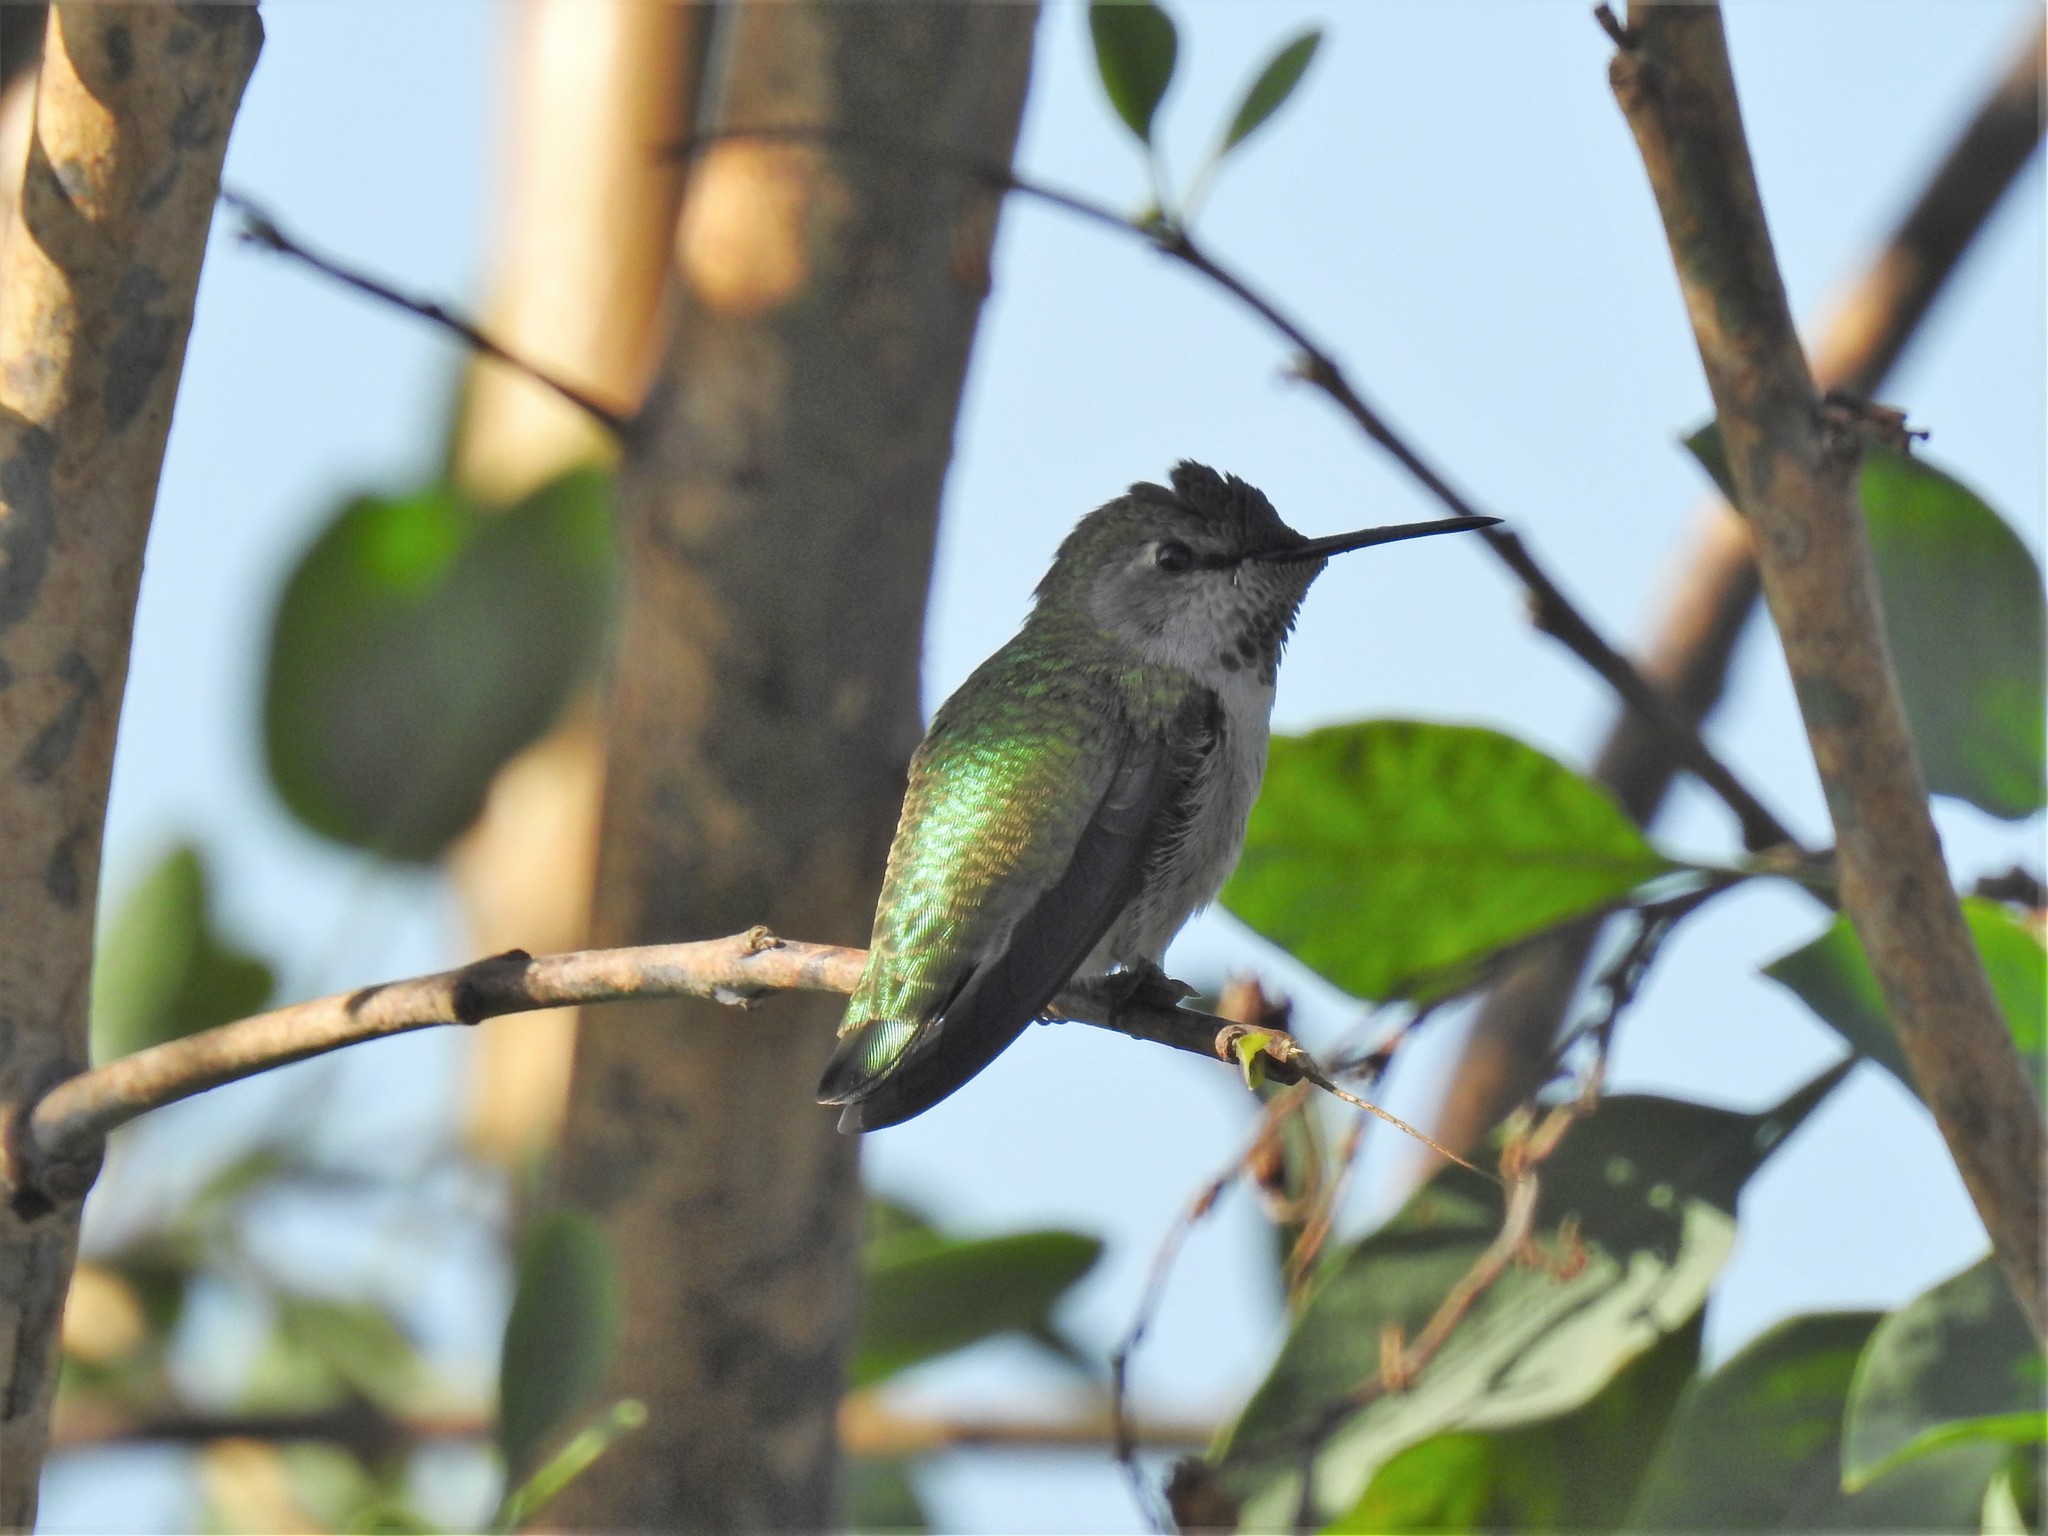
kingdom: Animalia
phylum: Chordata
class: Aves
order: Apodiformes
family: Trochilidae
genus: Calypte
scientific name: Calypte anna
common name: Anna's hummingbird
